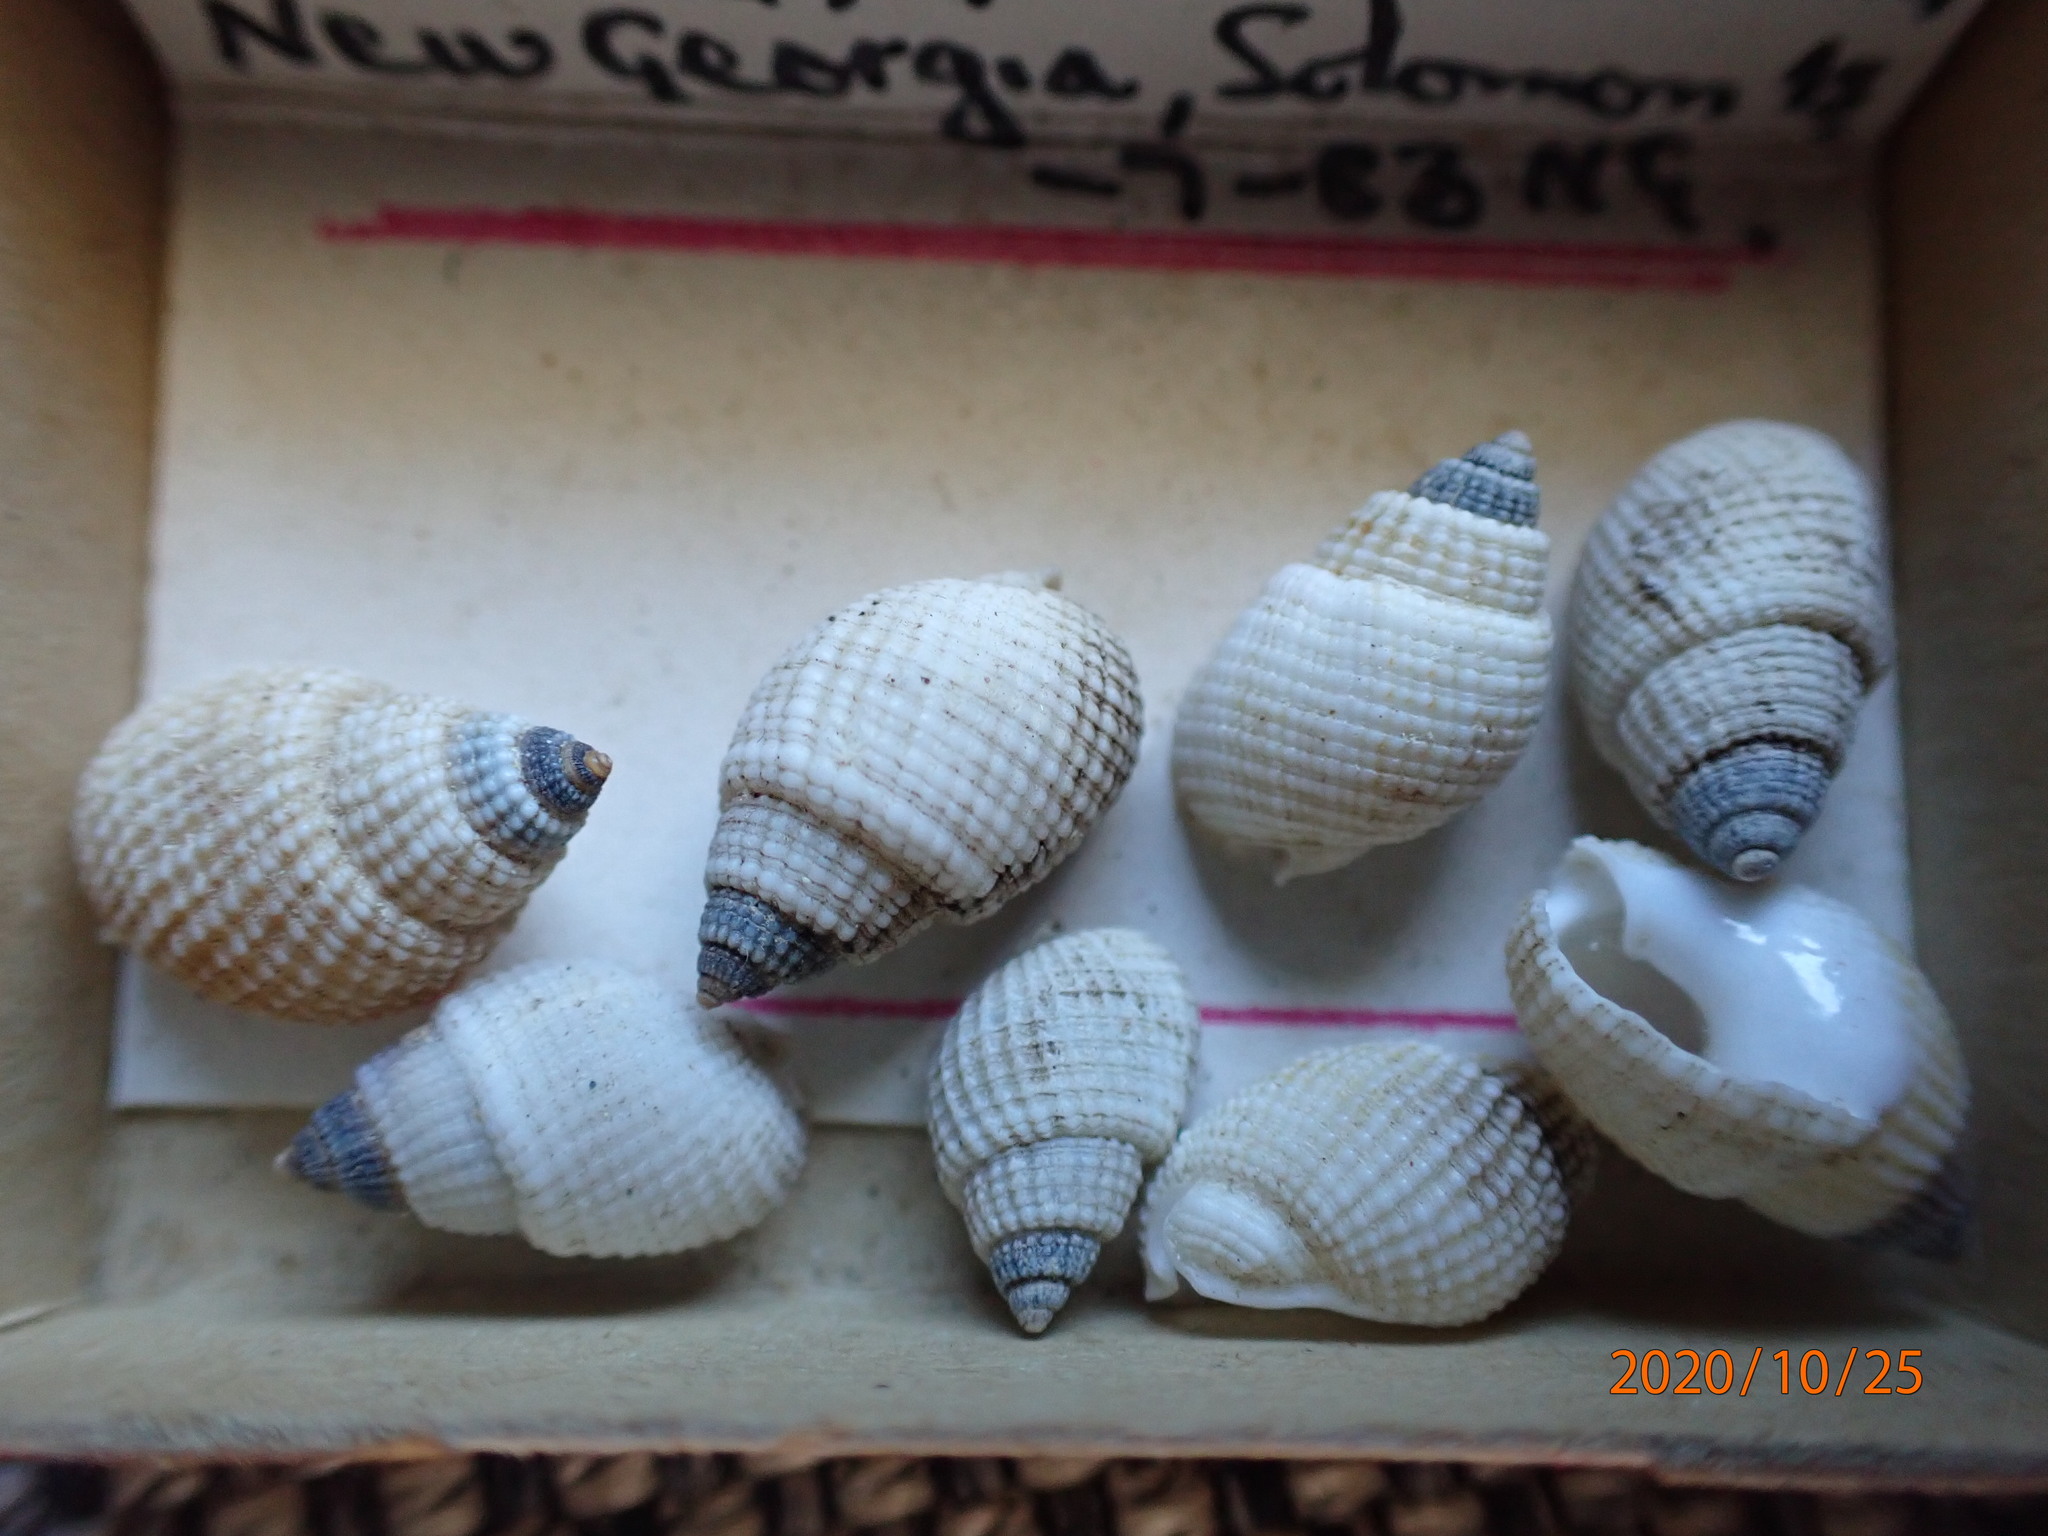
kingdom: Animalia
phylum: Mollusca
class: Gastropoda
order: Neogastropoda
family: Nassariidae
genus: Nassarius
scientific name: Nassarius albescens
